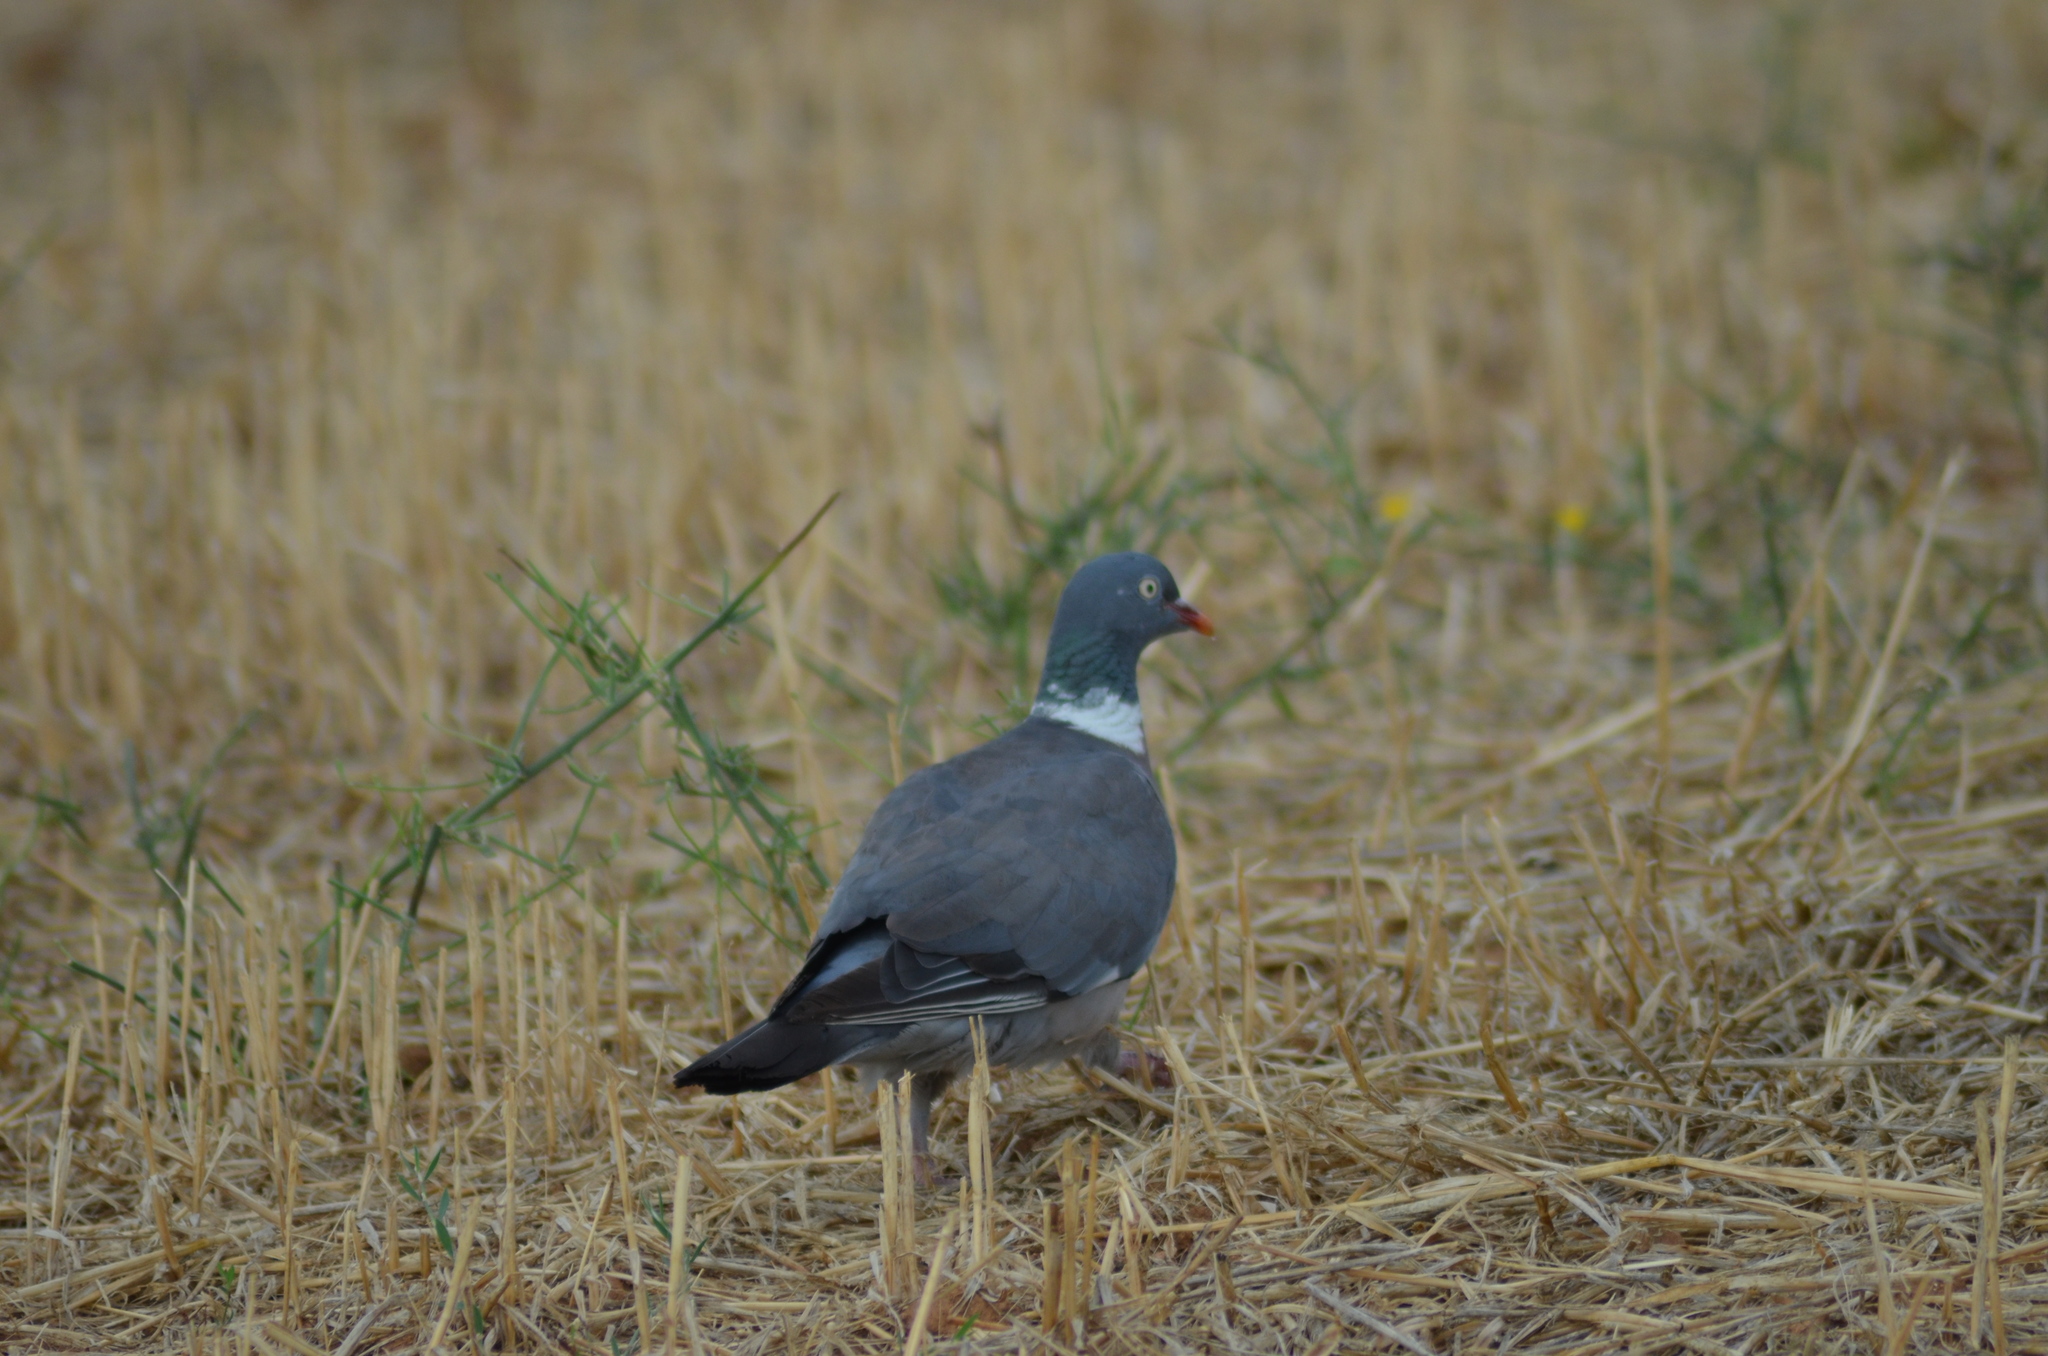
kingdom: Animalia
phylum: Chordata
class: Aves
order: Columbiformes
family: Columbidae
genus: Columba
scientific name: Columba palumbus
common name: Common wood pigeon
